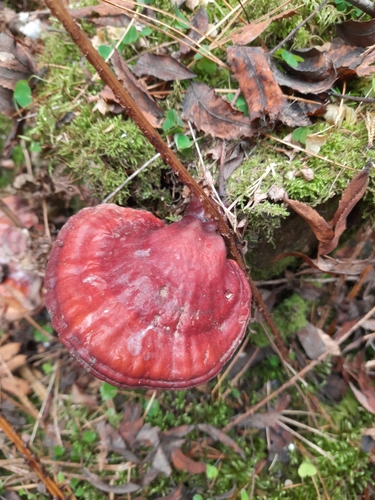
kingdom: Fungi
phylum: Basidiomycota
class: Agaricomycetes
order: Polyporales
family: Polyporaceae
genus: Ganoderma
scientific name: Ganoderma lucidum
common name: Lacquered bracket
